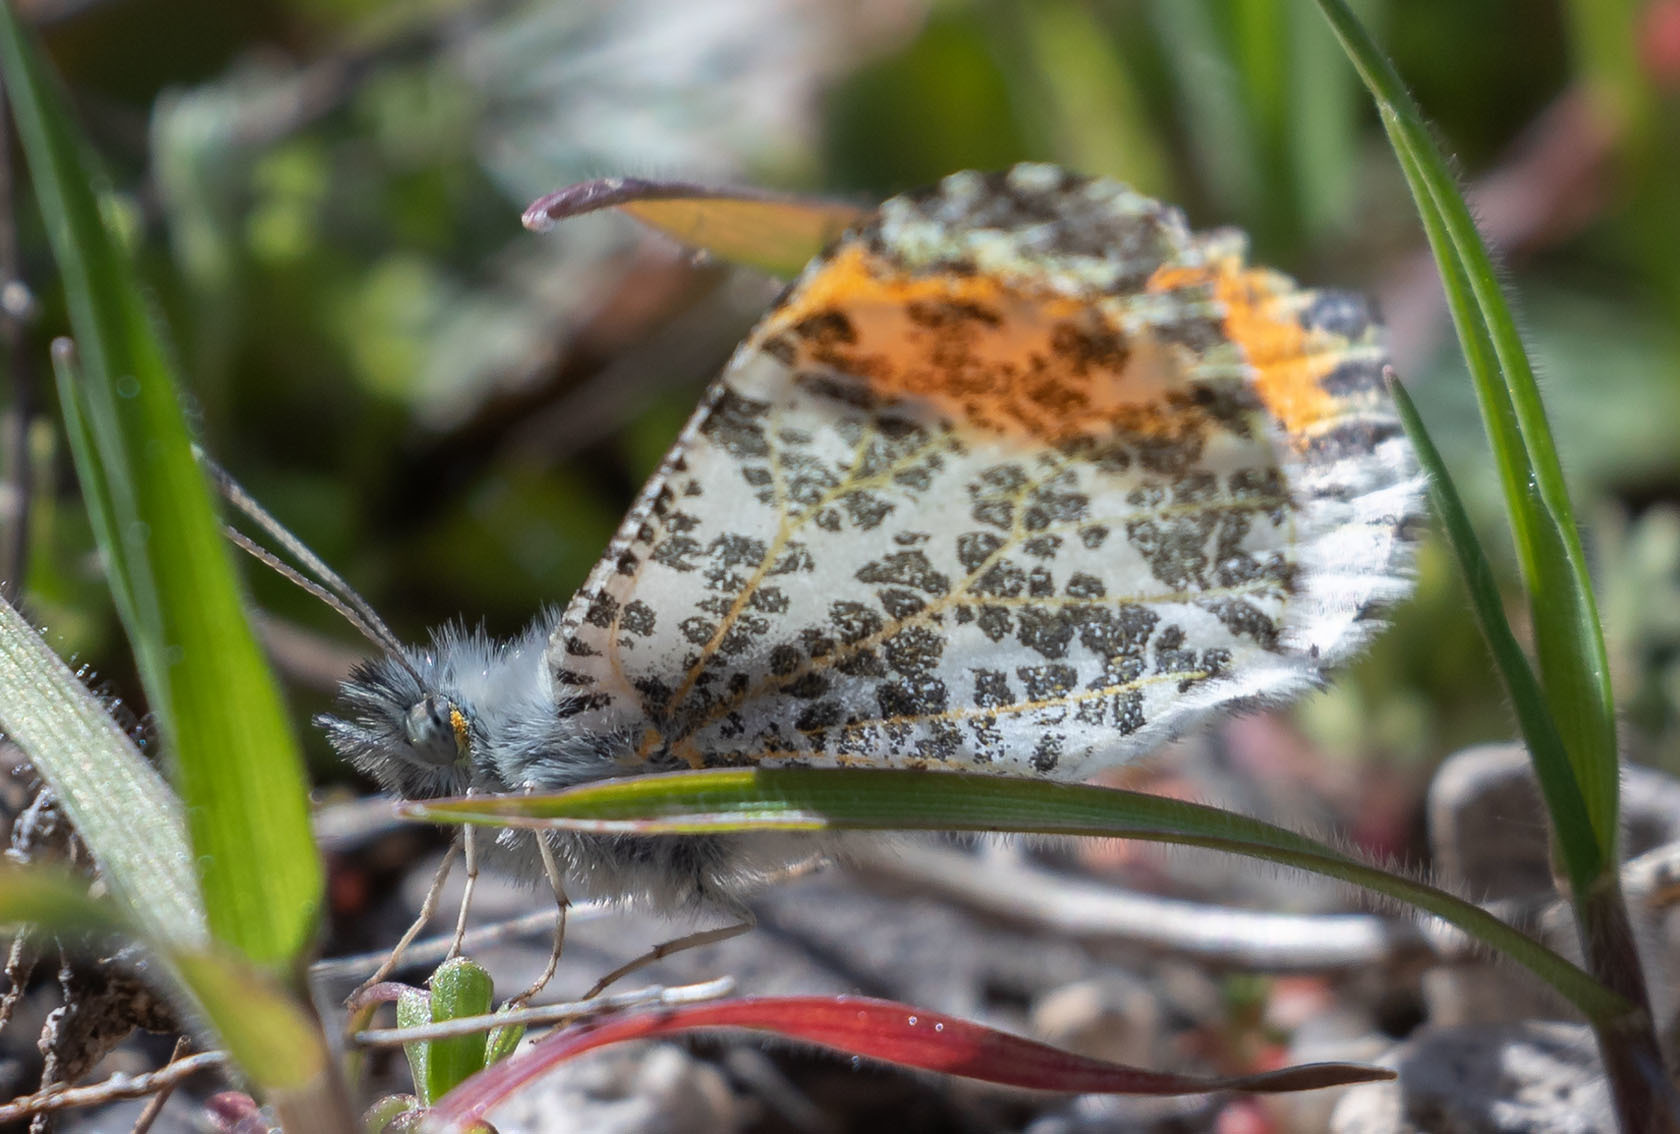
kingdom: Animalia
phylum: Arthropoda
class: Insecta
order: Lepidoptera
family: Pieridae
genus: Anthocharis
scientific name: Anthocharis sara
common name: Sara's orangetip
